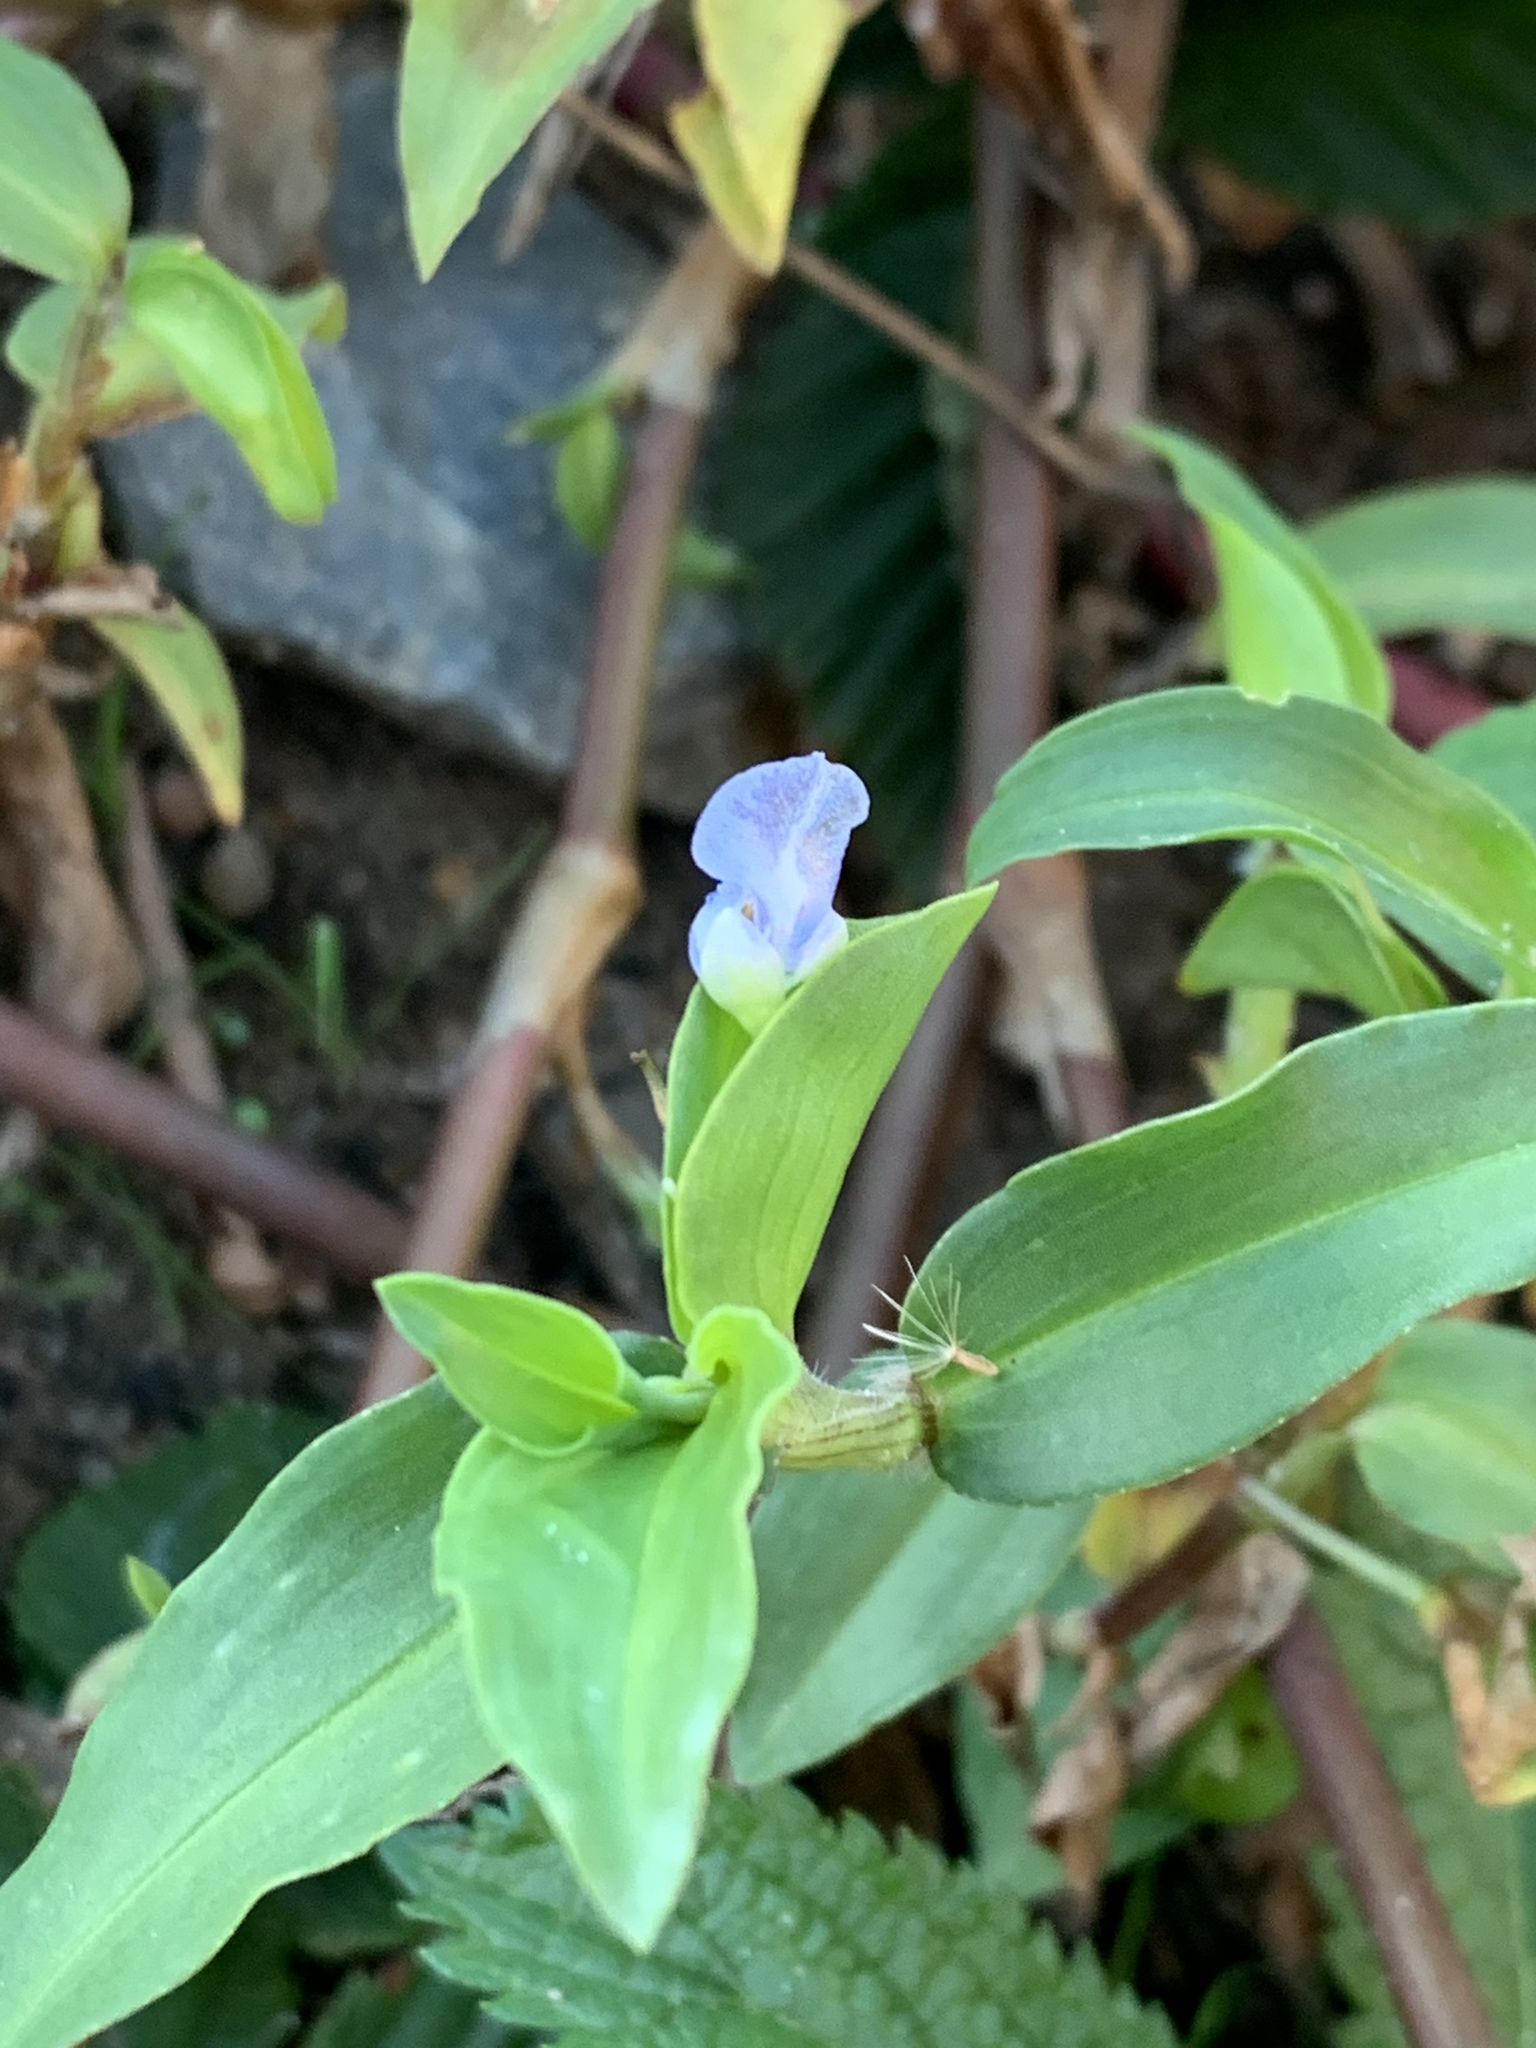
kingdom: Plantae
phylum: Tracheophyta
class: Liliopsida
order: Commelinales
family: Commelinaceae
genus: Commelina
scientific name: Commelina diffusa
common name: Climbing dayflower
